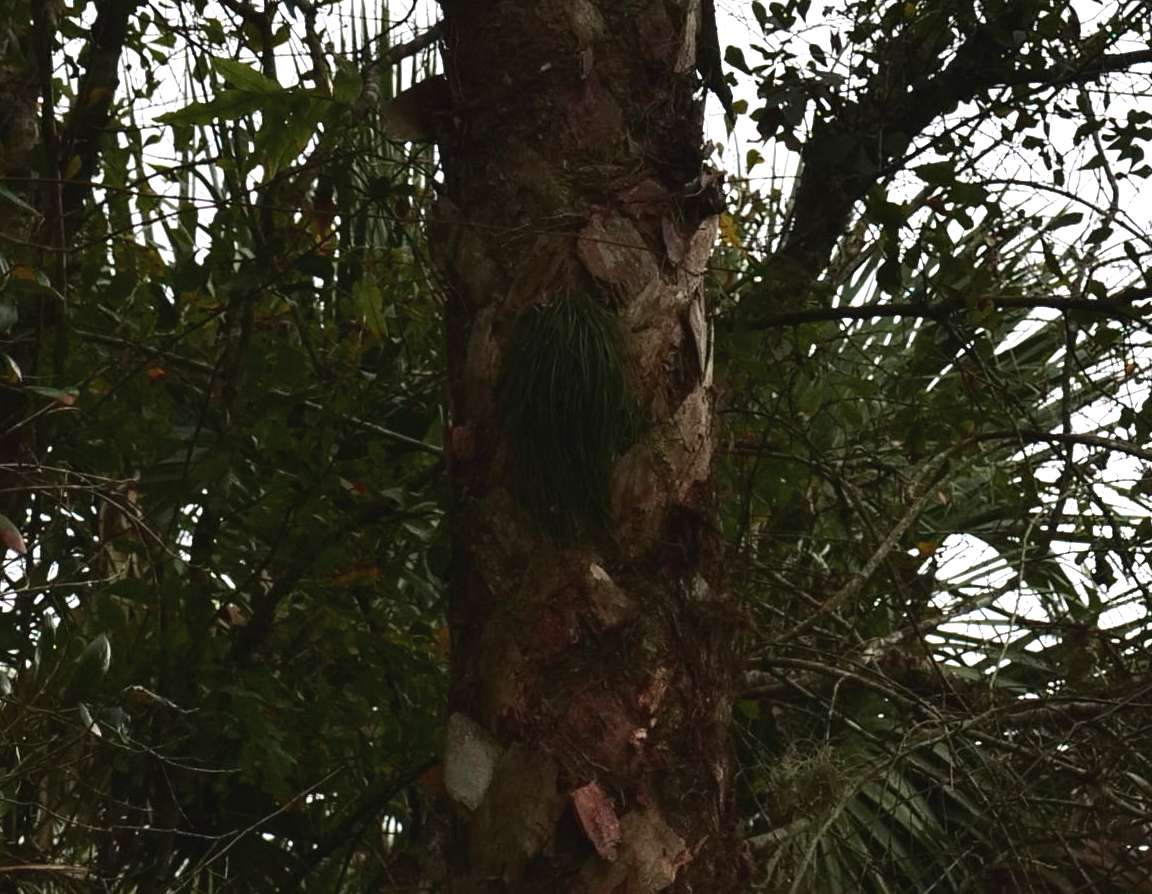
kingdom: Plantae
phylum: Tracheophyta
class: Polypodiopsida
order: Polypodiales
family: Pteridaceae
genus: Vittaria
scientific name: Vittaria lineata
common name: Shoestring fern
